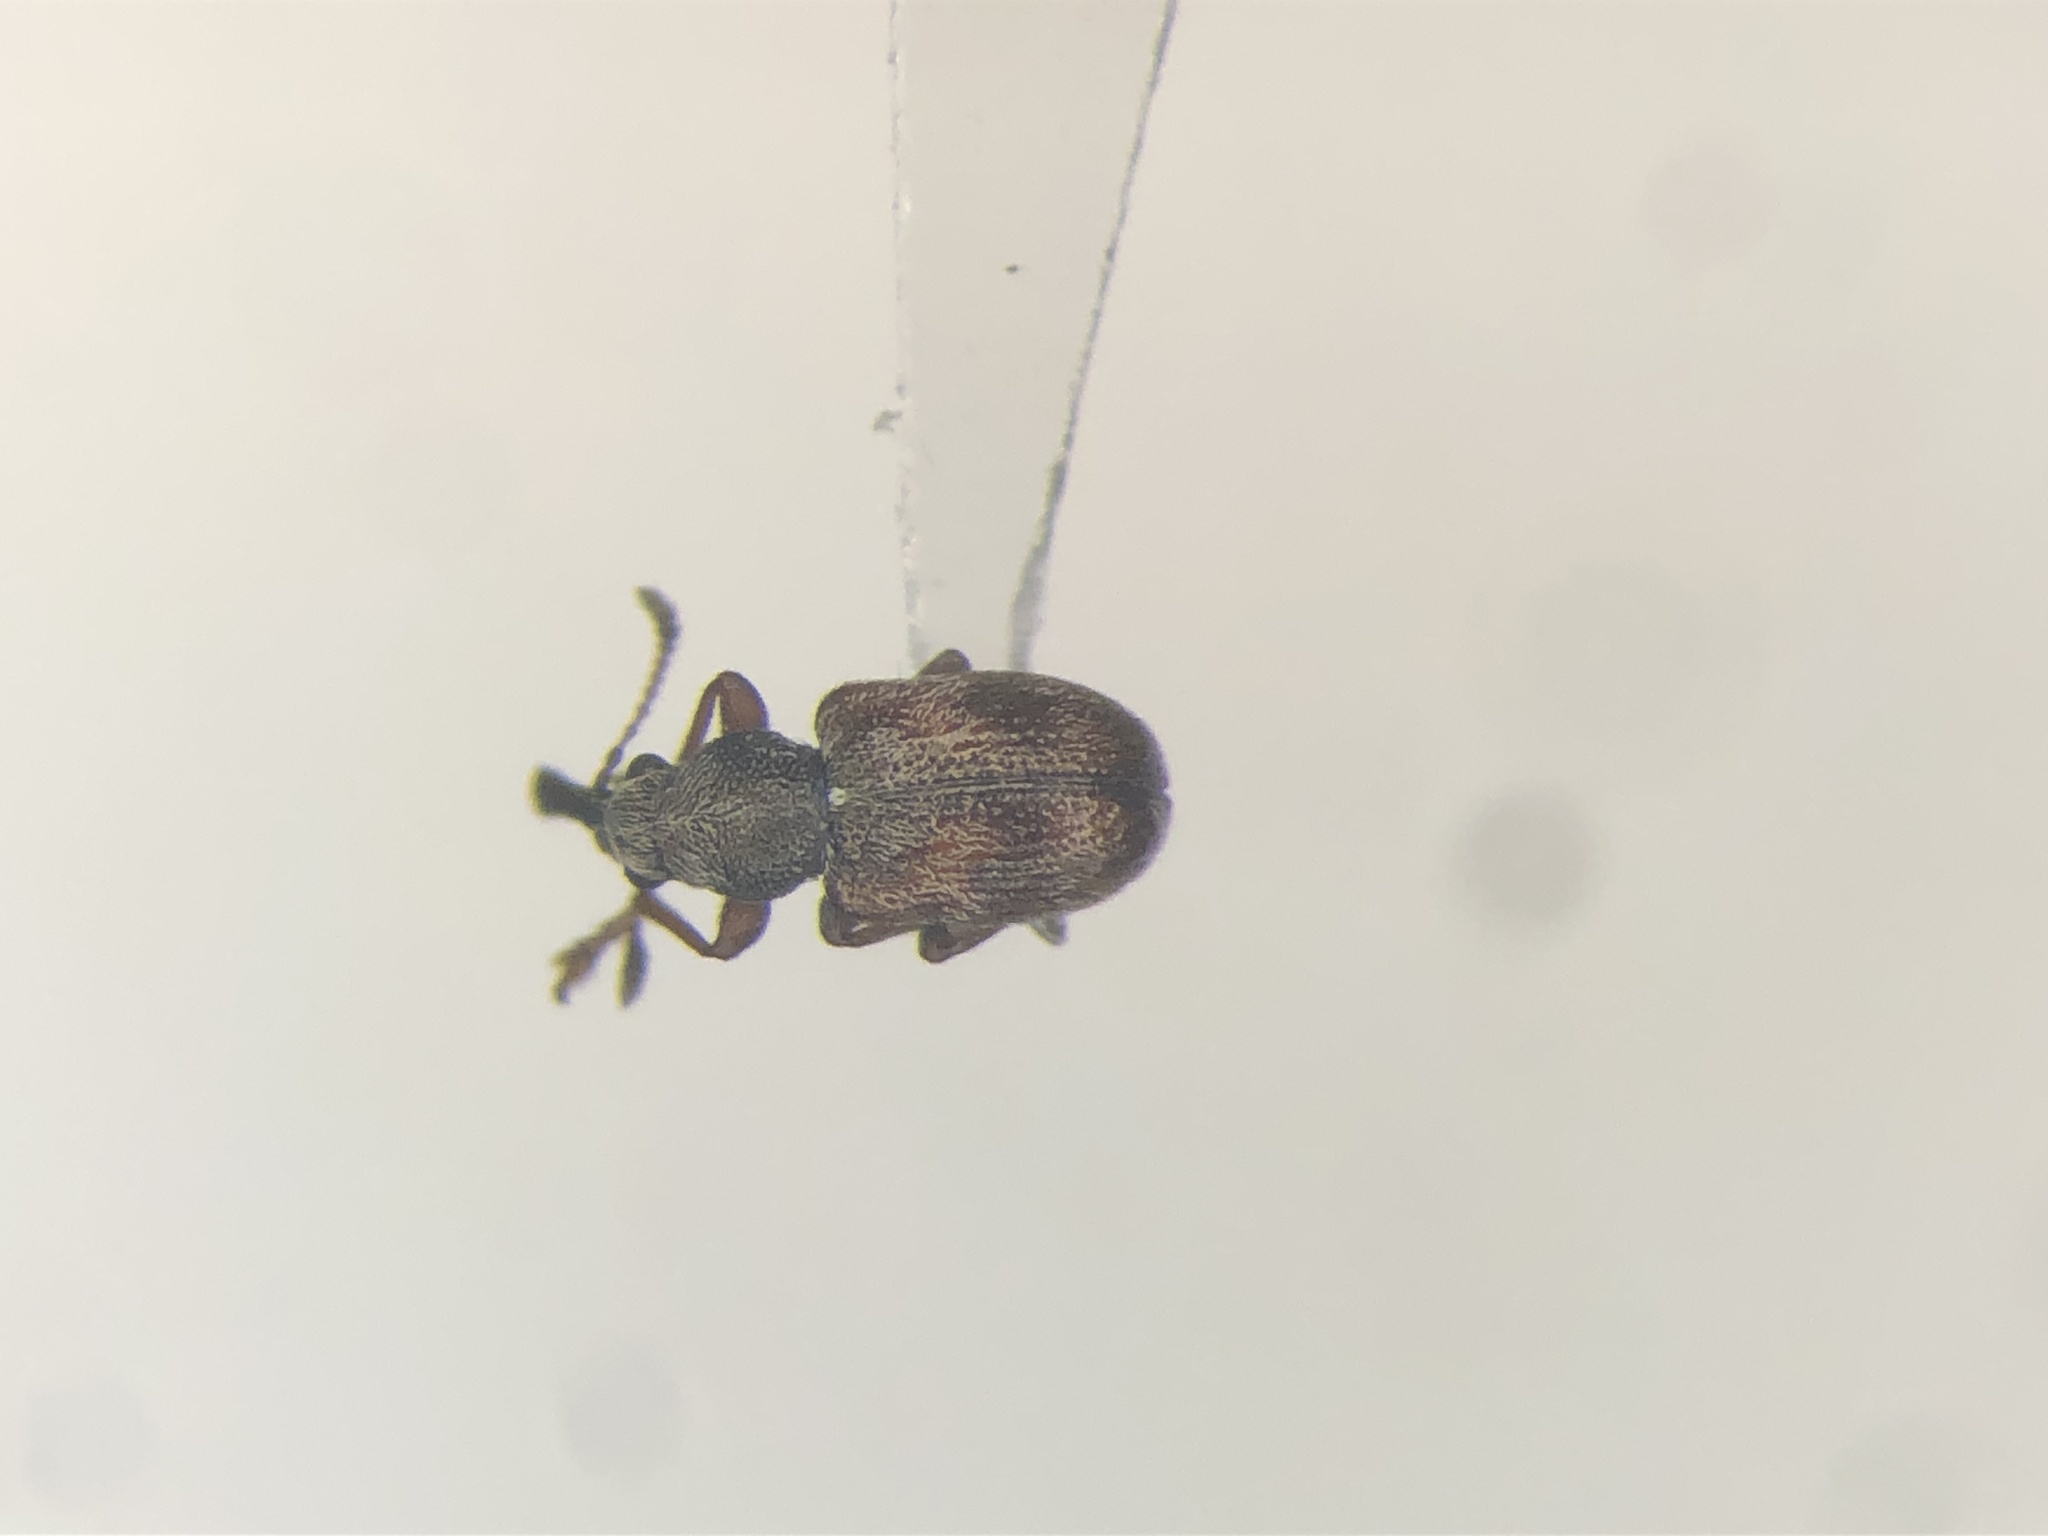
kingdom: Animalia
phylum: Arthropoda
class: Insecta
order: Coleoptera
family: Attelabidae
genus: Auletobius
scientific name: Auletobius cassandrae
